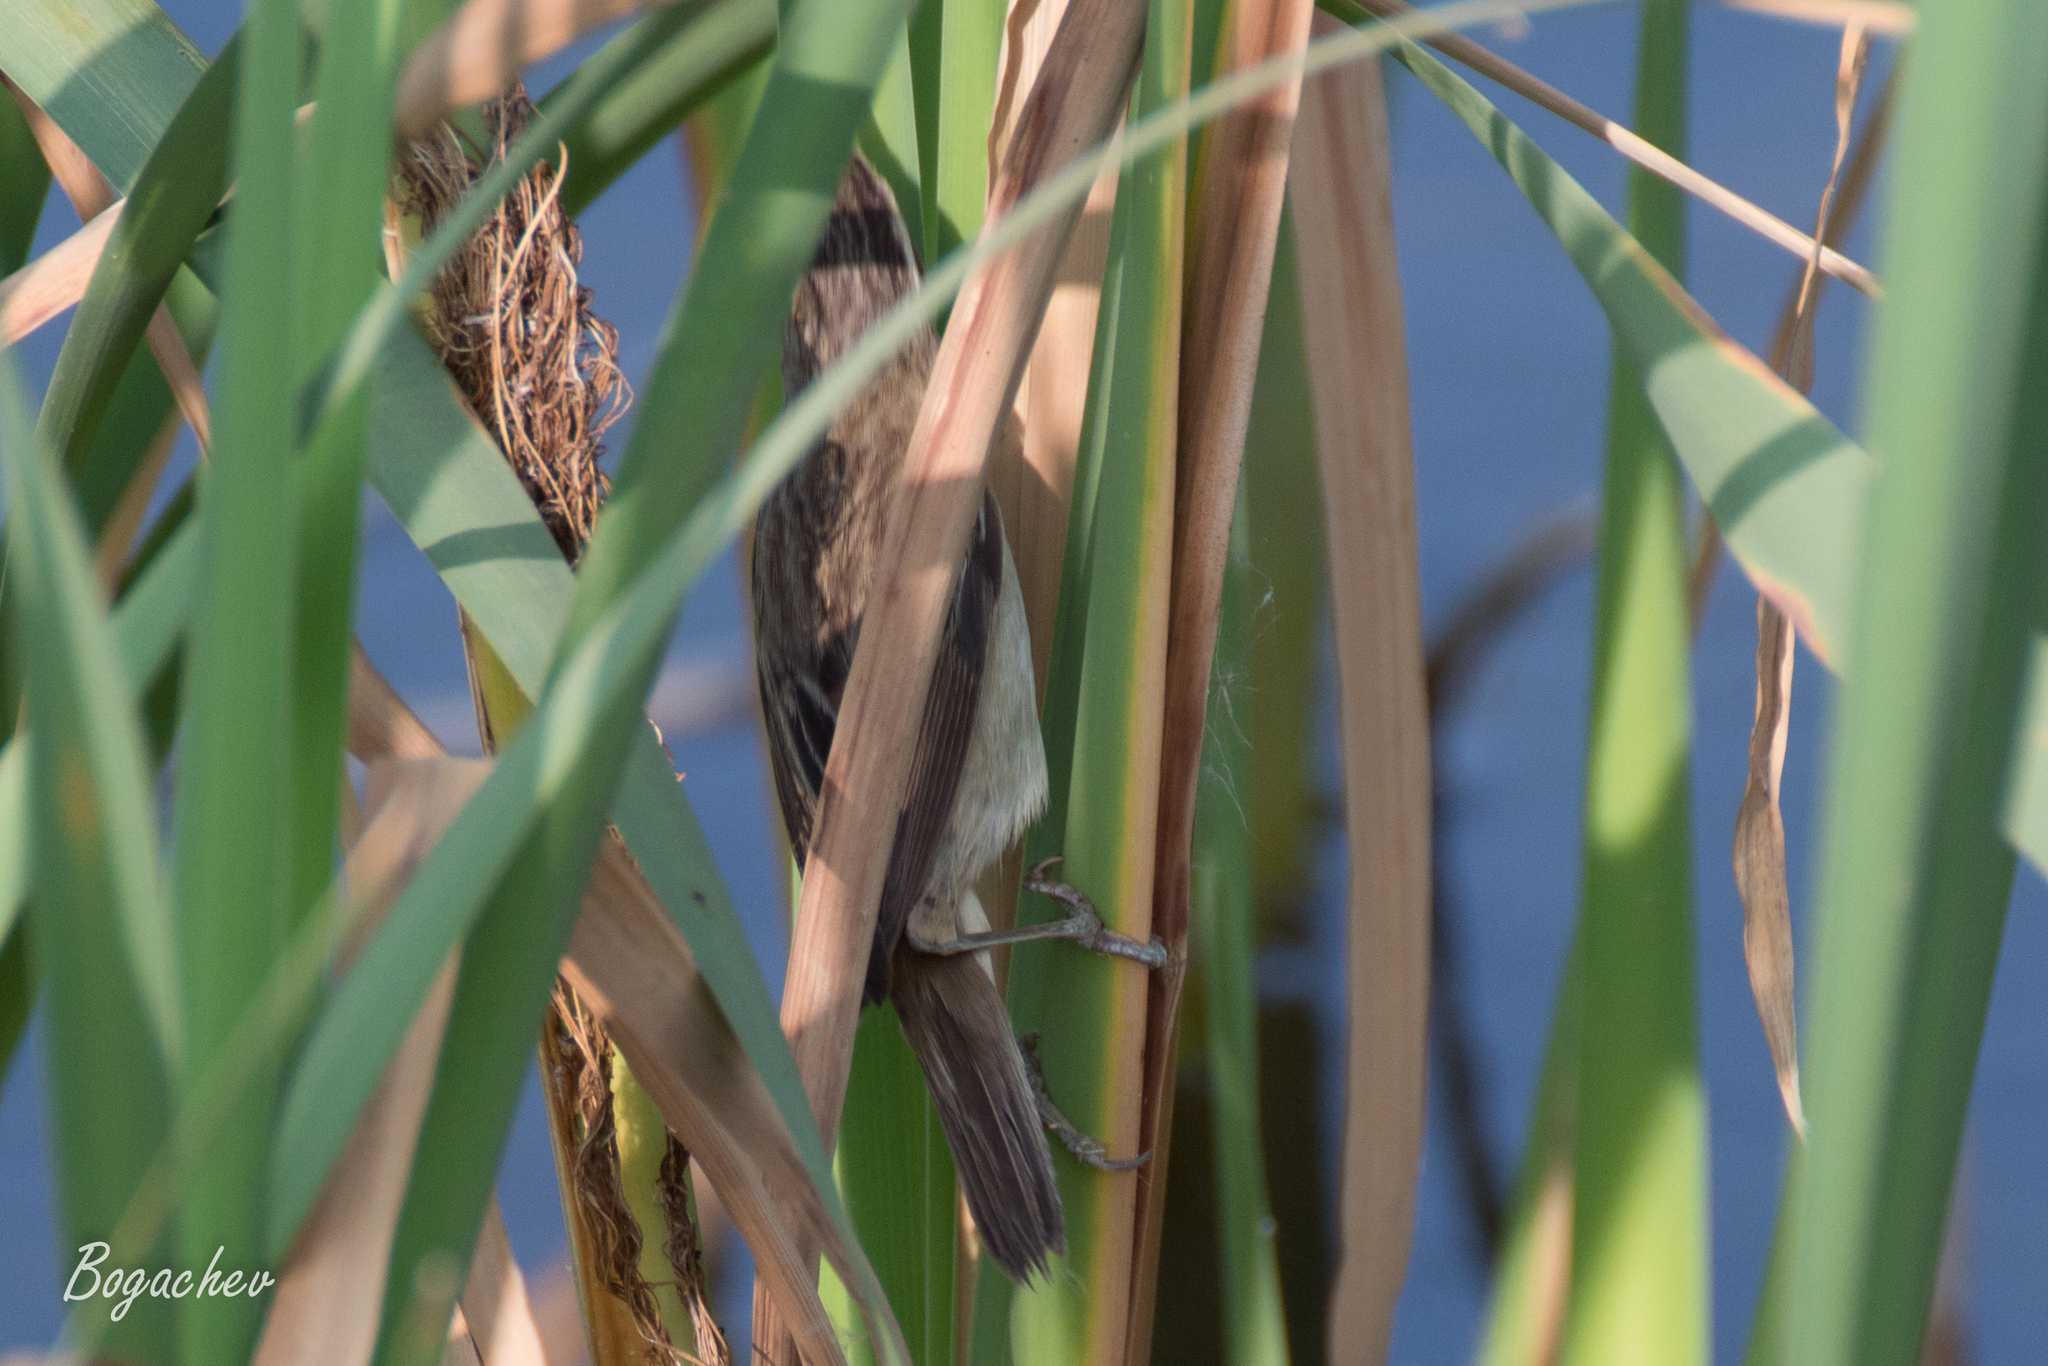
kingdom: Animalia
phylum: Chordata
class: Aves
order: Passeriformes
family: Acrocephalidae
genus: Acrocephalus
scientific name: Acrocephalus schoenobaenus
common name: Sedge warbler
